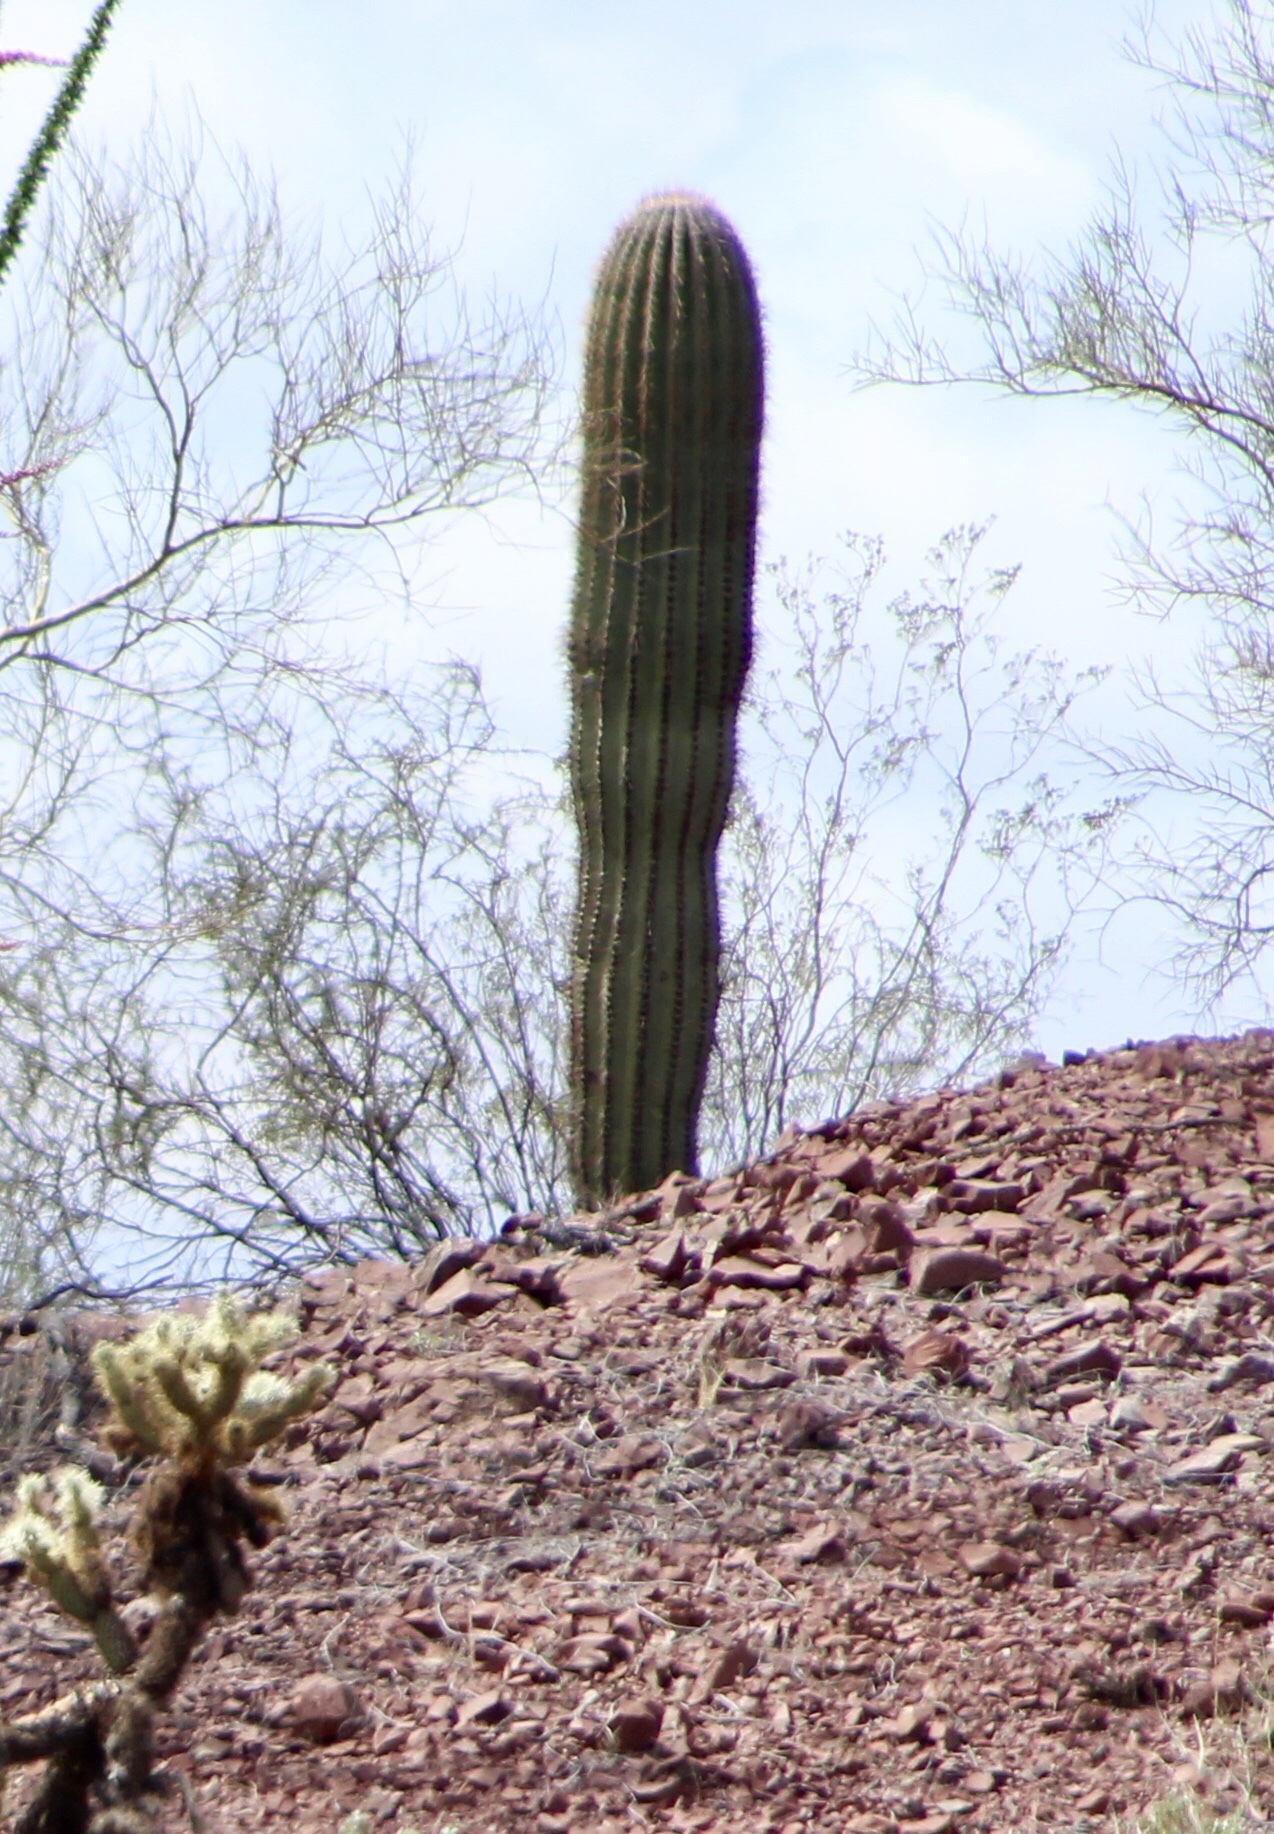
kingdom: Plantae
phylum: Tracheophyta
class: Magnoliopsida
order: Caryophyllales
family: Cactaceae
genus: Carnegiea
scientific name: Carnegiea gigantea
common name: Saguaro
